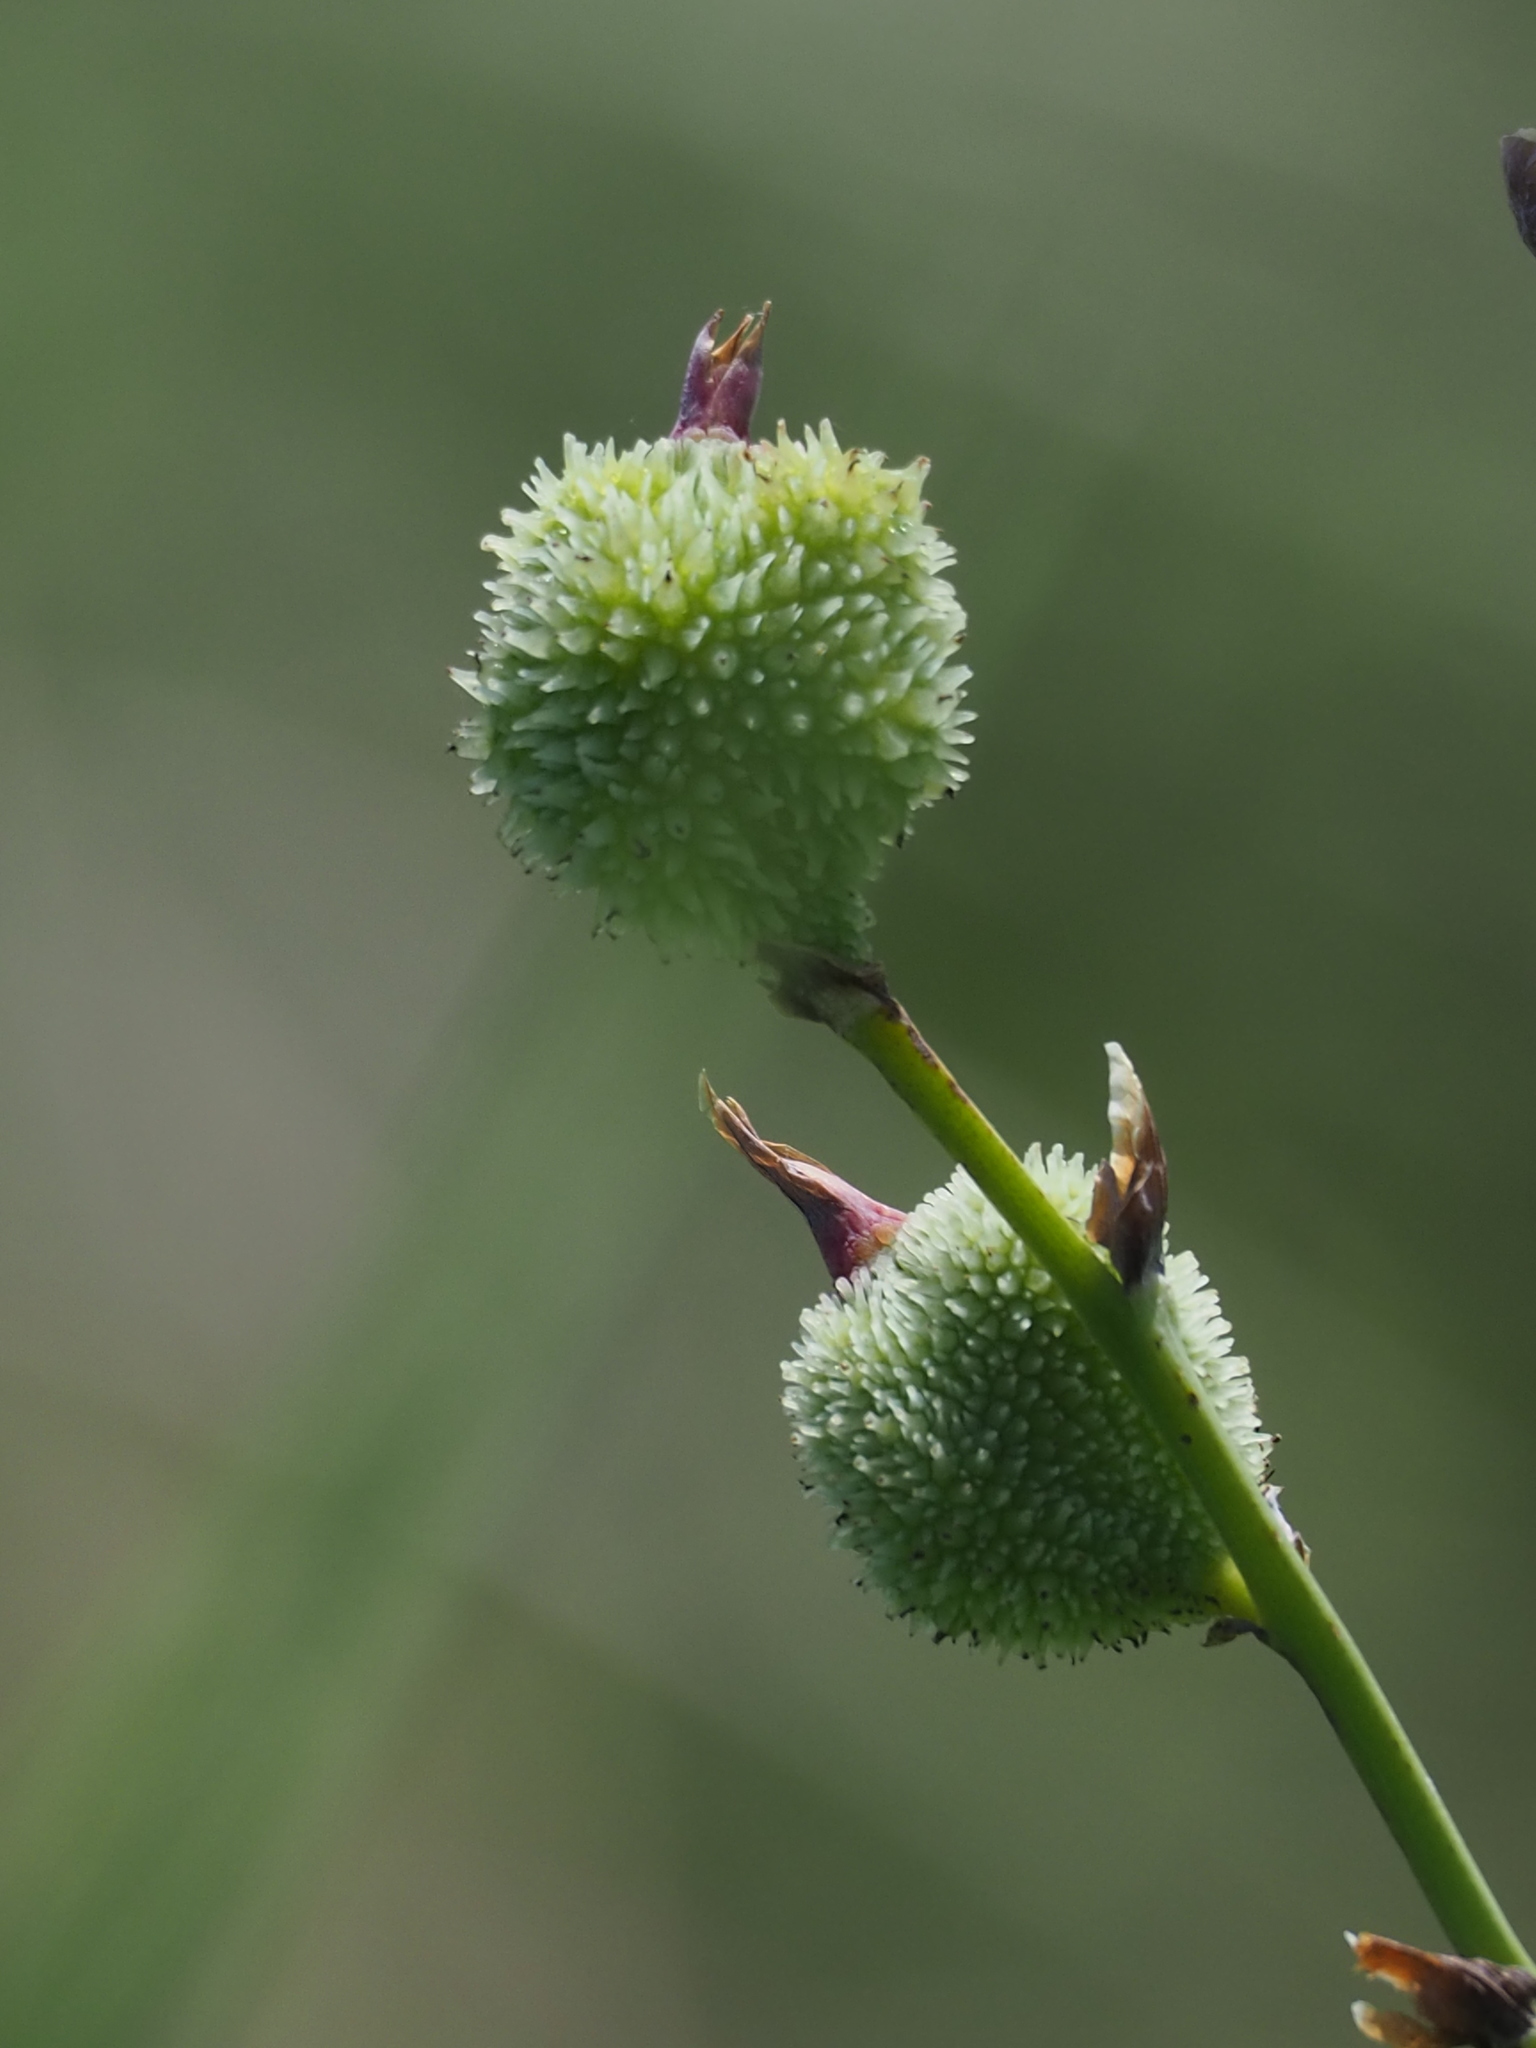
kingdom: Plantae
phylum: Tracheophyta
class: Liliopsida
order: Zingiberales
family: Cannaceae
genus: Canna
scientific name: Canna indica
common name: Indian shot
